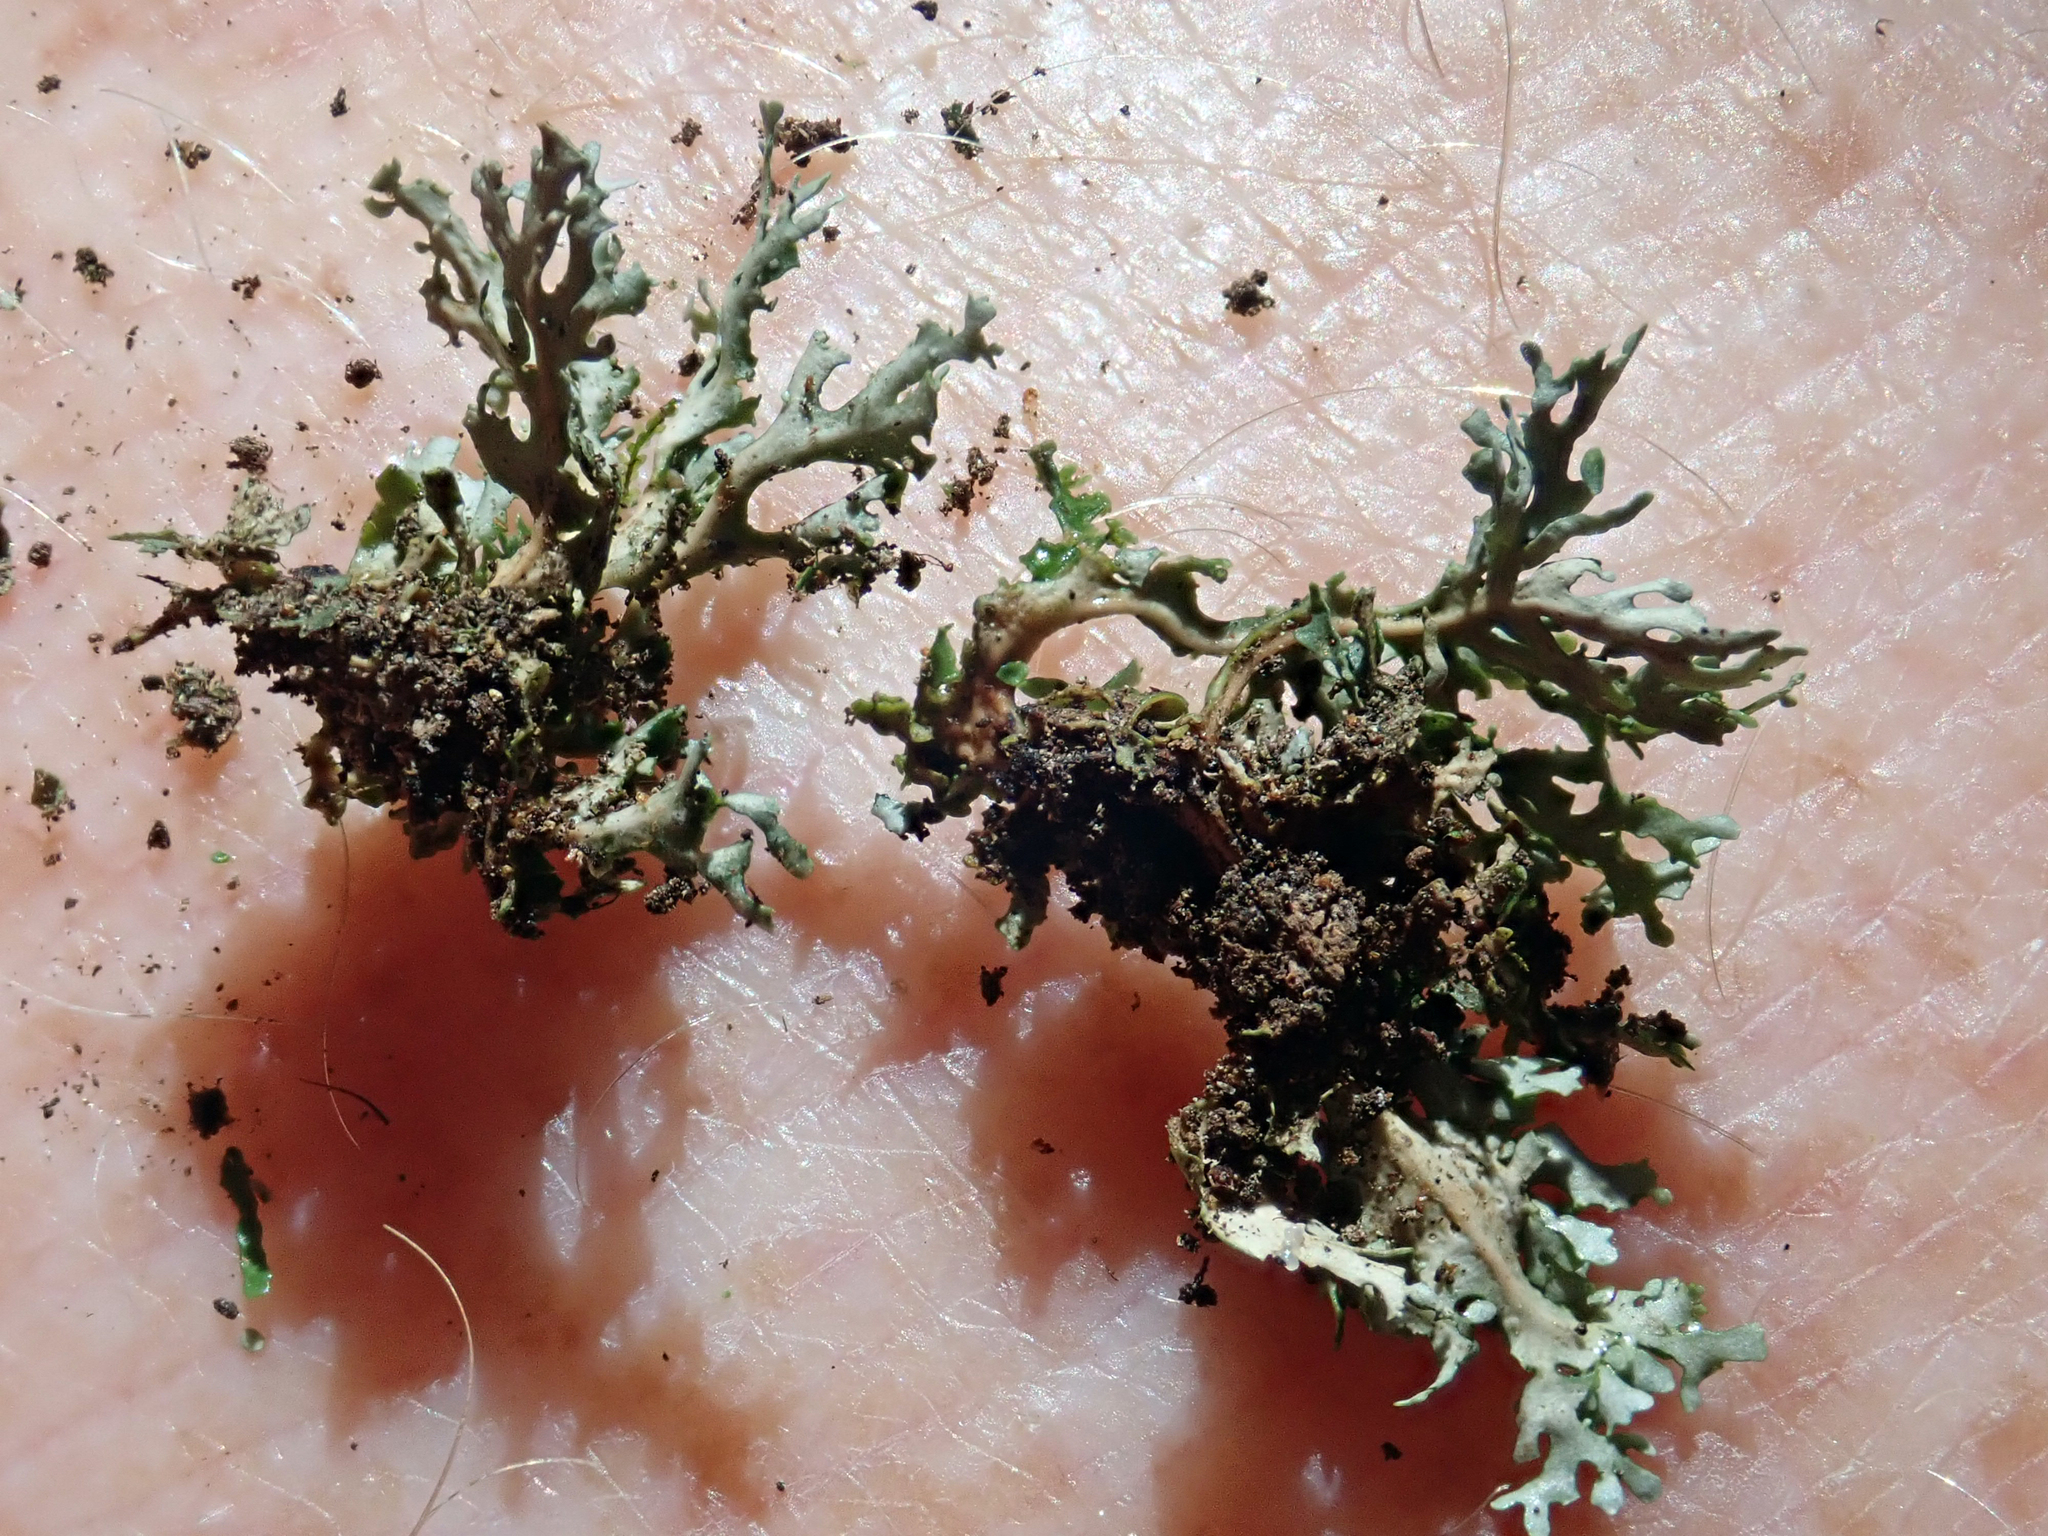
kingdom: Fungi
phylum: Ascomycota
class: Lecanoromycetes
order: Peltigerales
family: Lobariaceae
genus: Sticta
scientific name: Sticta
